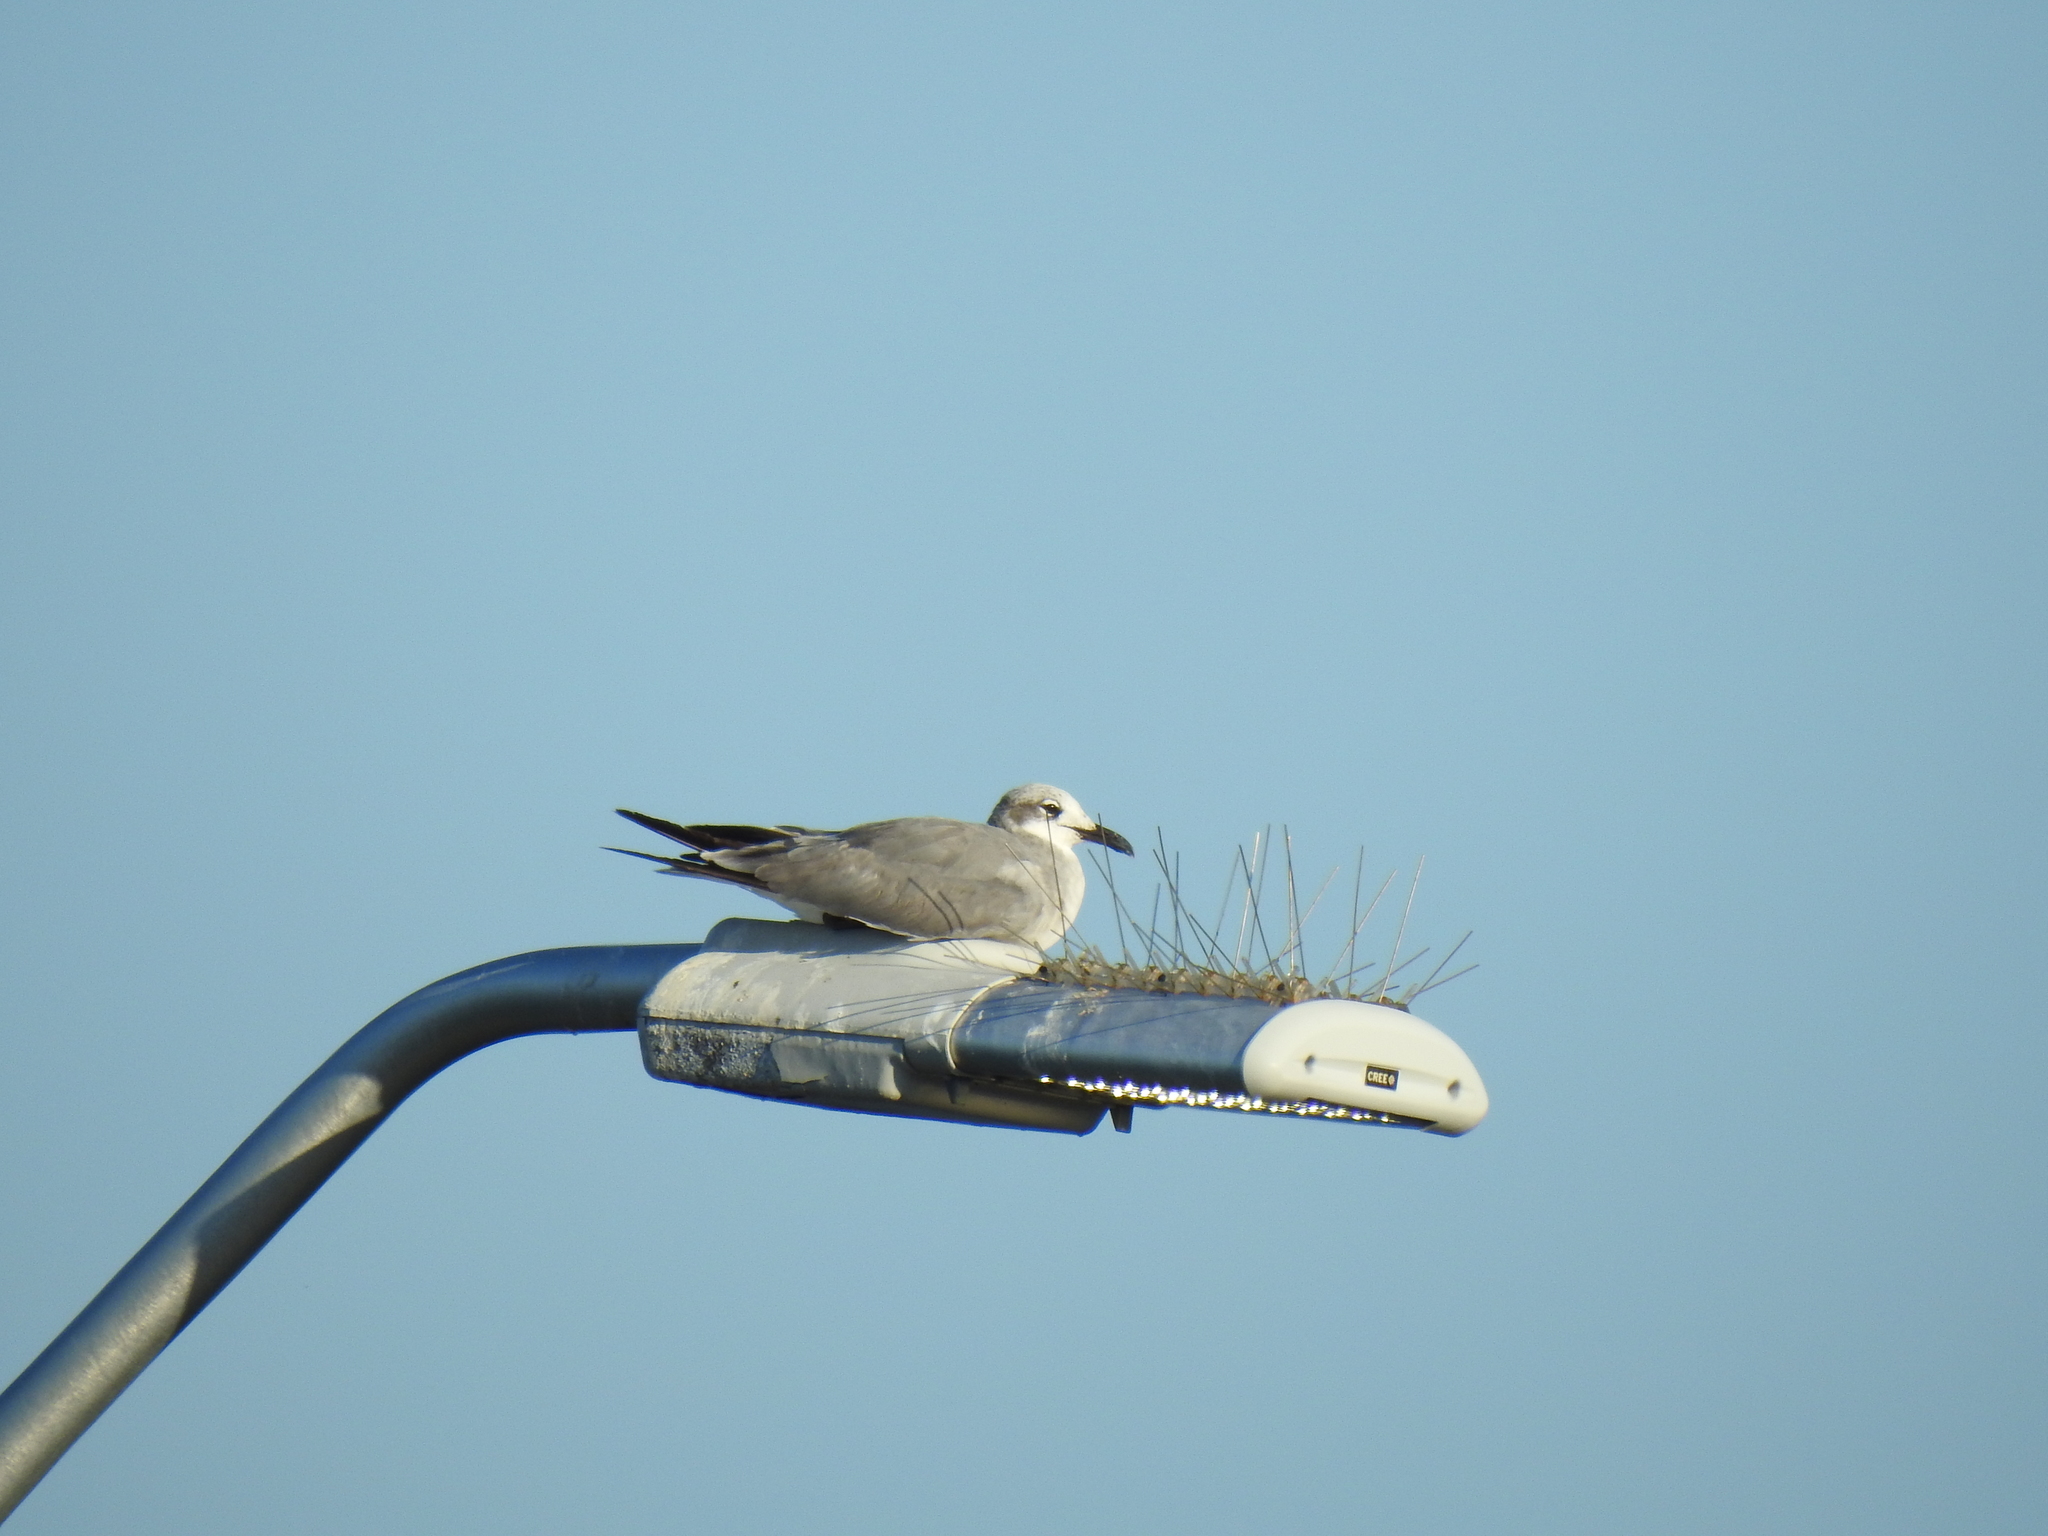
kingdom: Animalia
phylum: Chordata
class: Aves
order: Charadriiformes
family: Laridae
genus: Leucophaeus
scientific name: Leucophaeus atricilla
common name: Laughing gull
